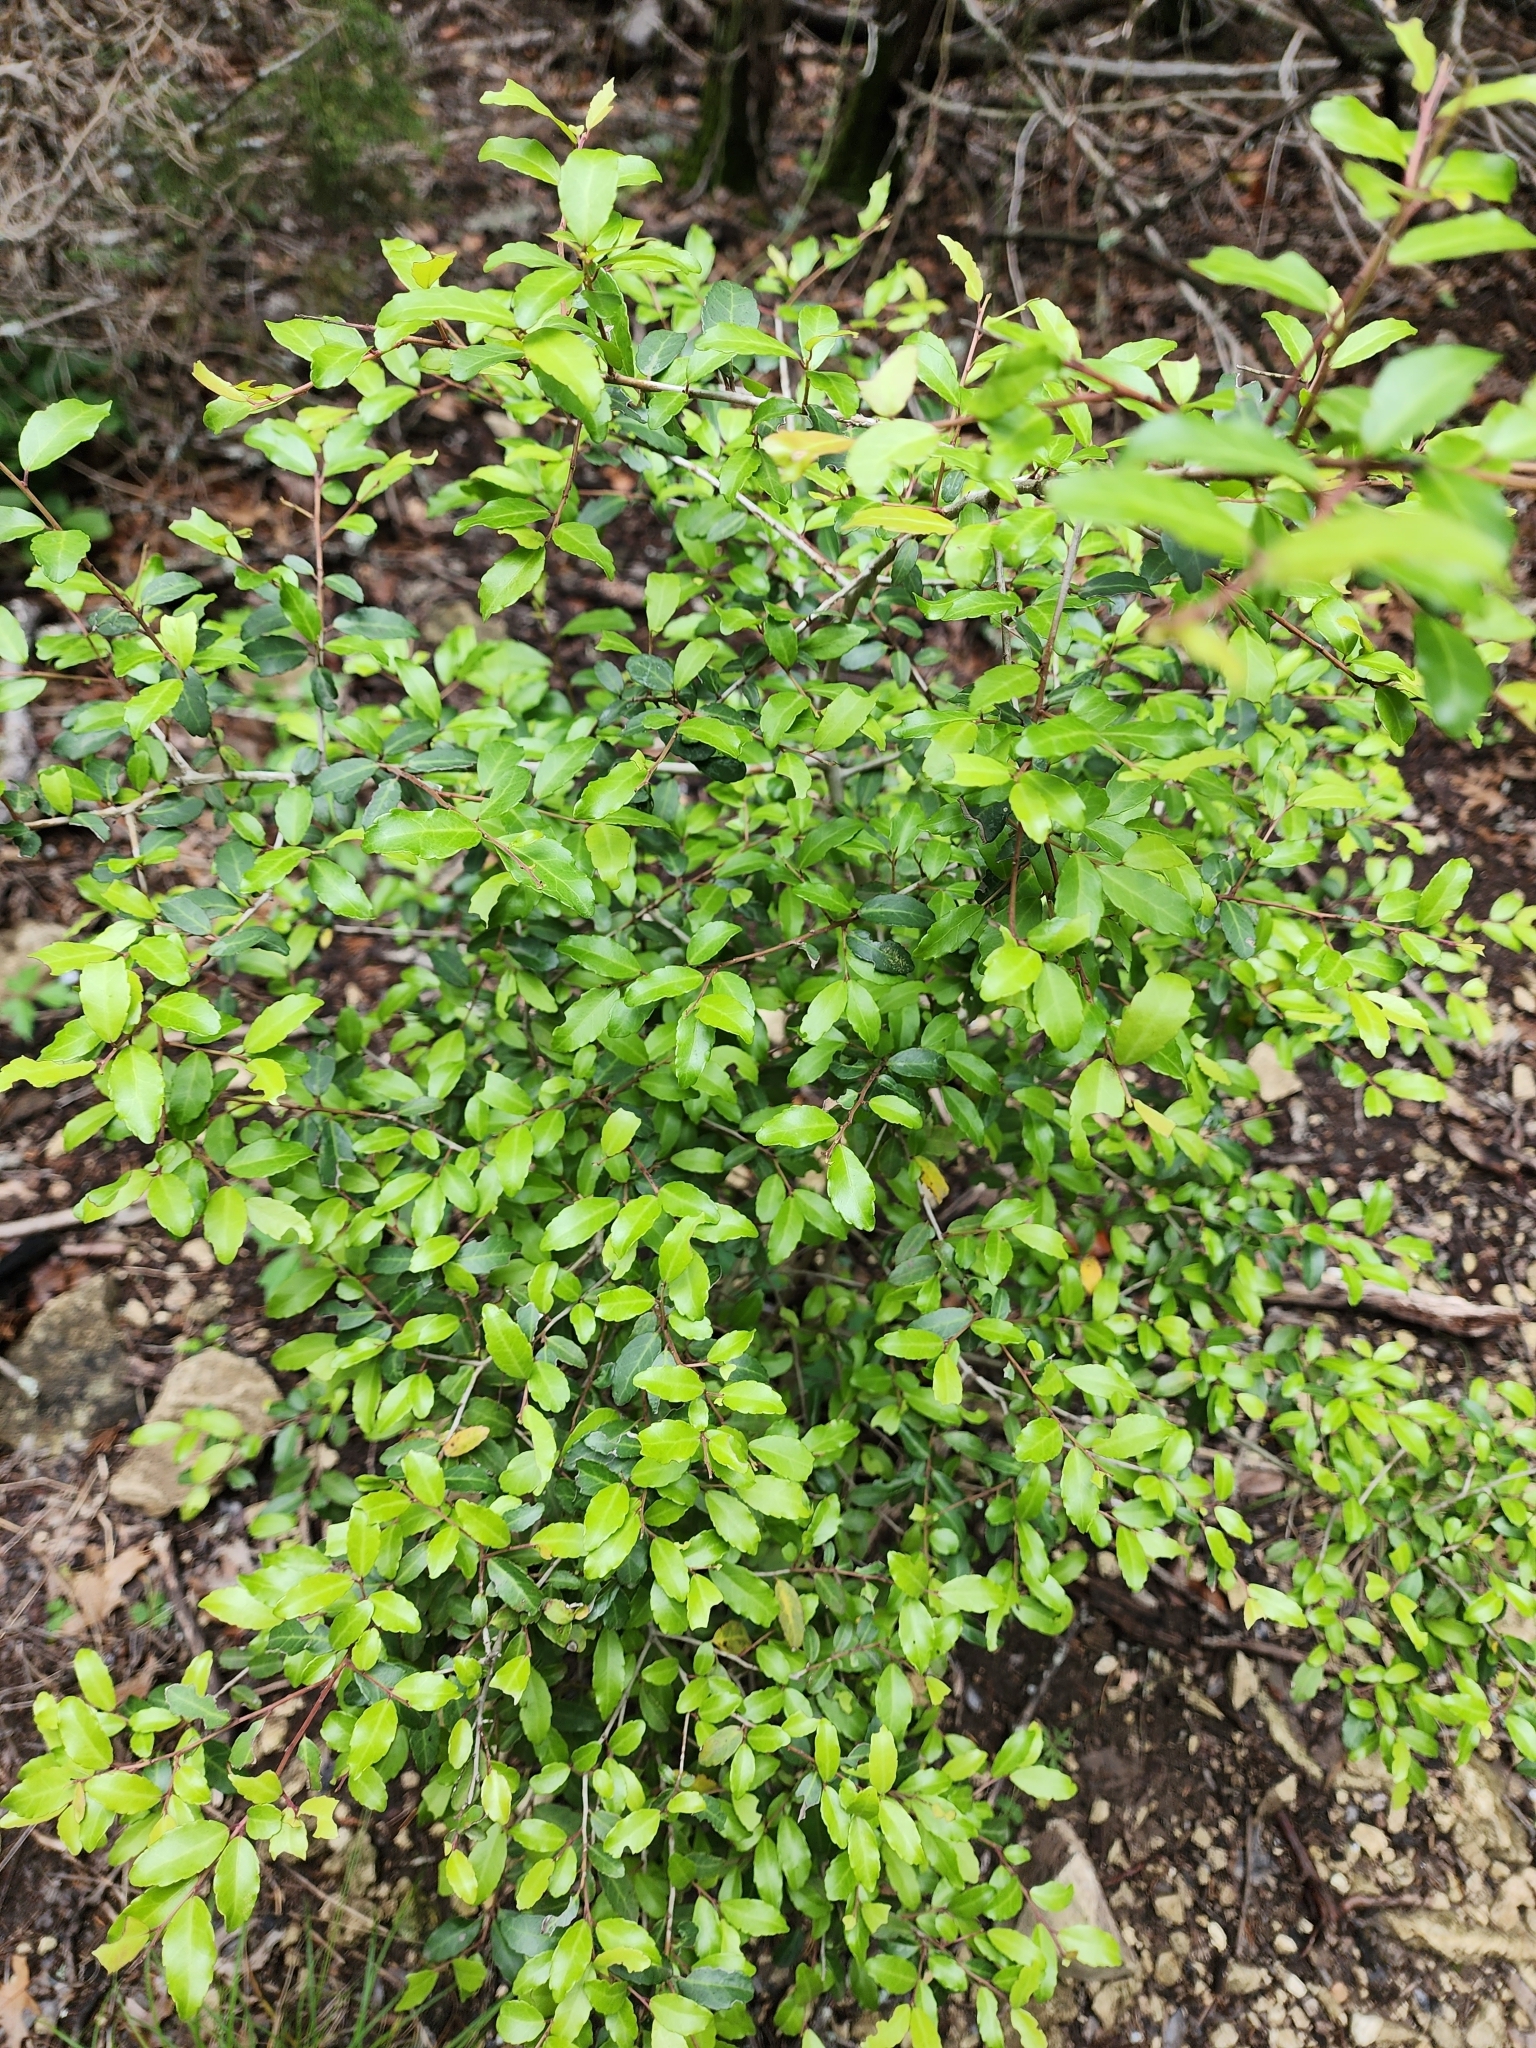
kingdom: Plantae
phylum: Tracheophyta
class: Magnoliopsida
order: Aquifoliales
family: Aquifoliaceae
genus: Ilex
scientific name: Ilex vomitoria
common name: Yaupon holly
